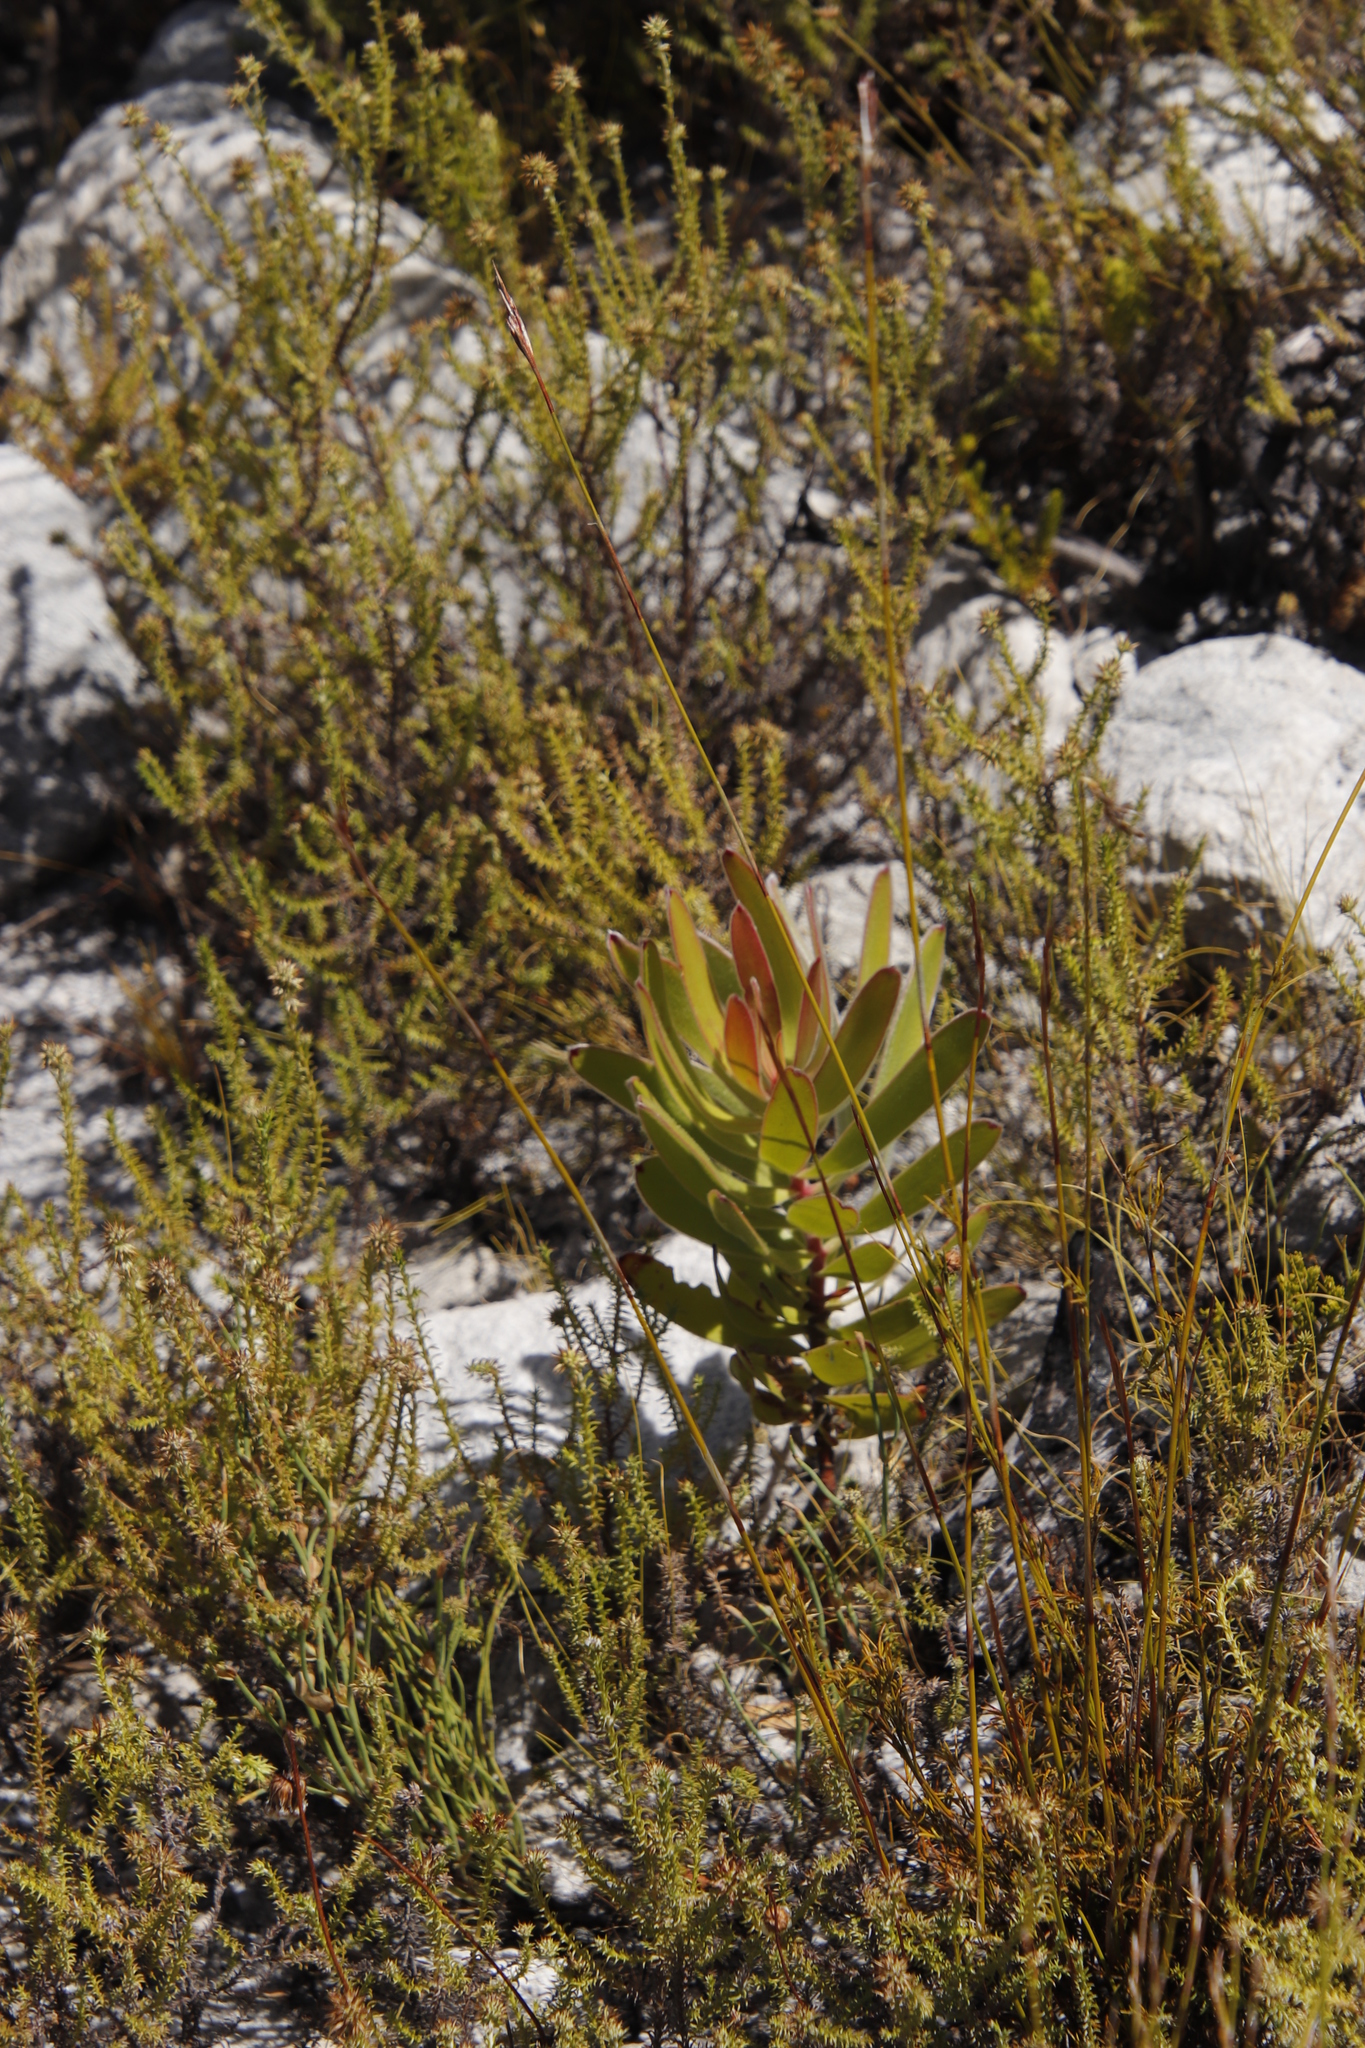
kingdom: Plantae
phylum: Tracheophyta
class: Magnoliopsida
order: Proteales
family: Proteaceae
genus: Leucadendron
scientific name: Leucadendron laureolum
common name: Golden sunshinebush
